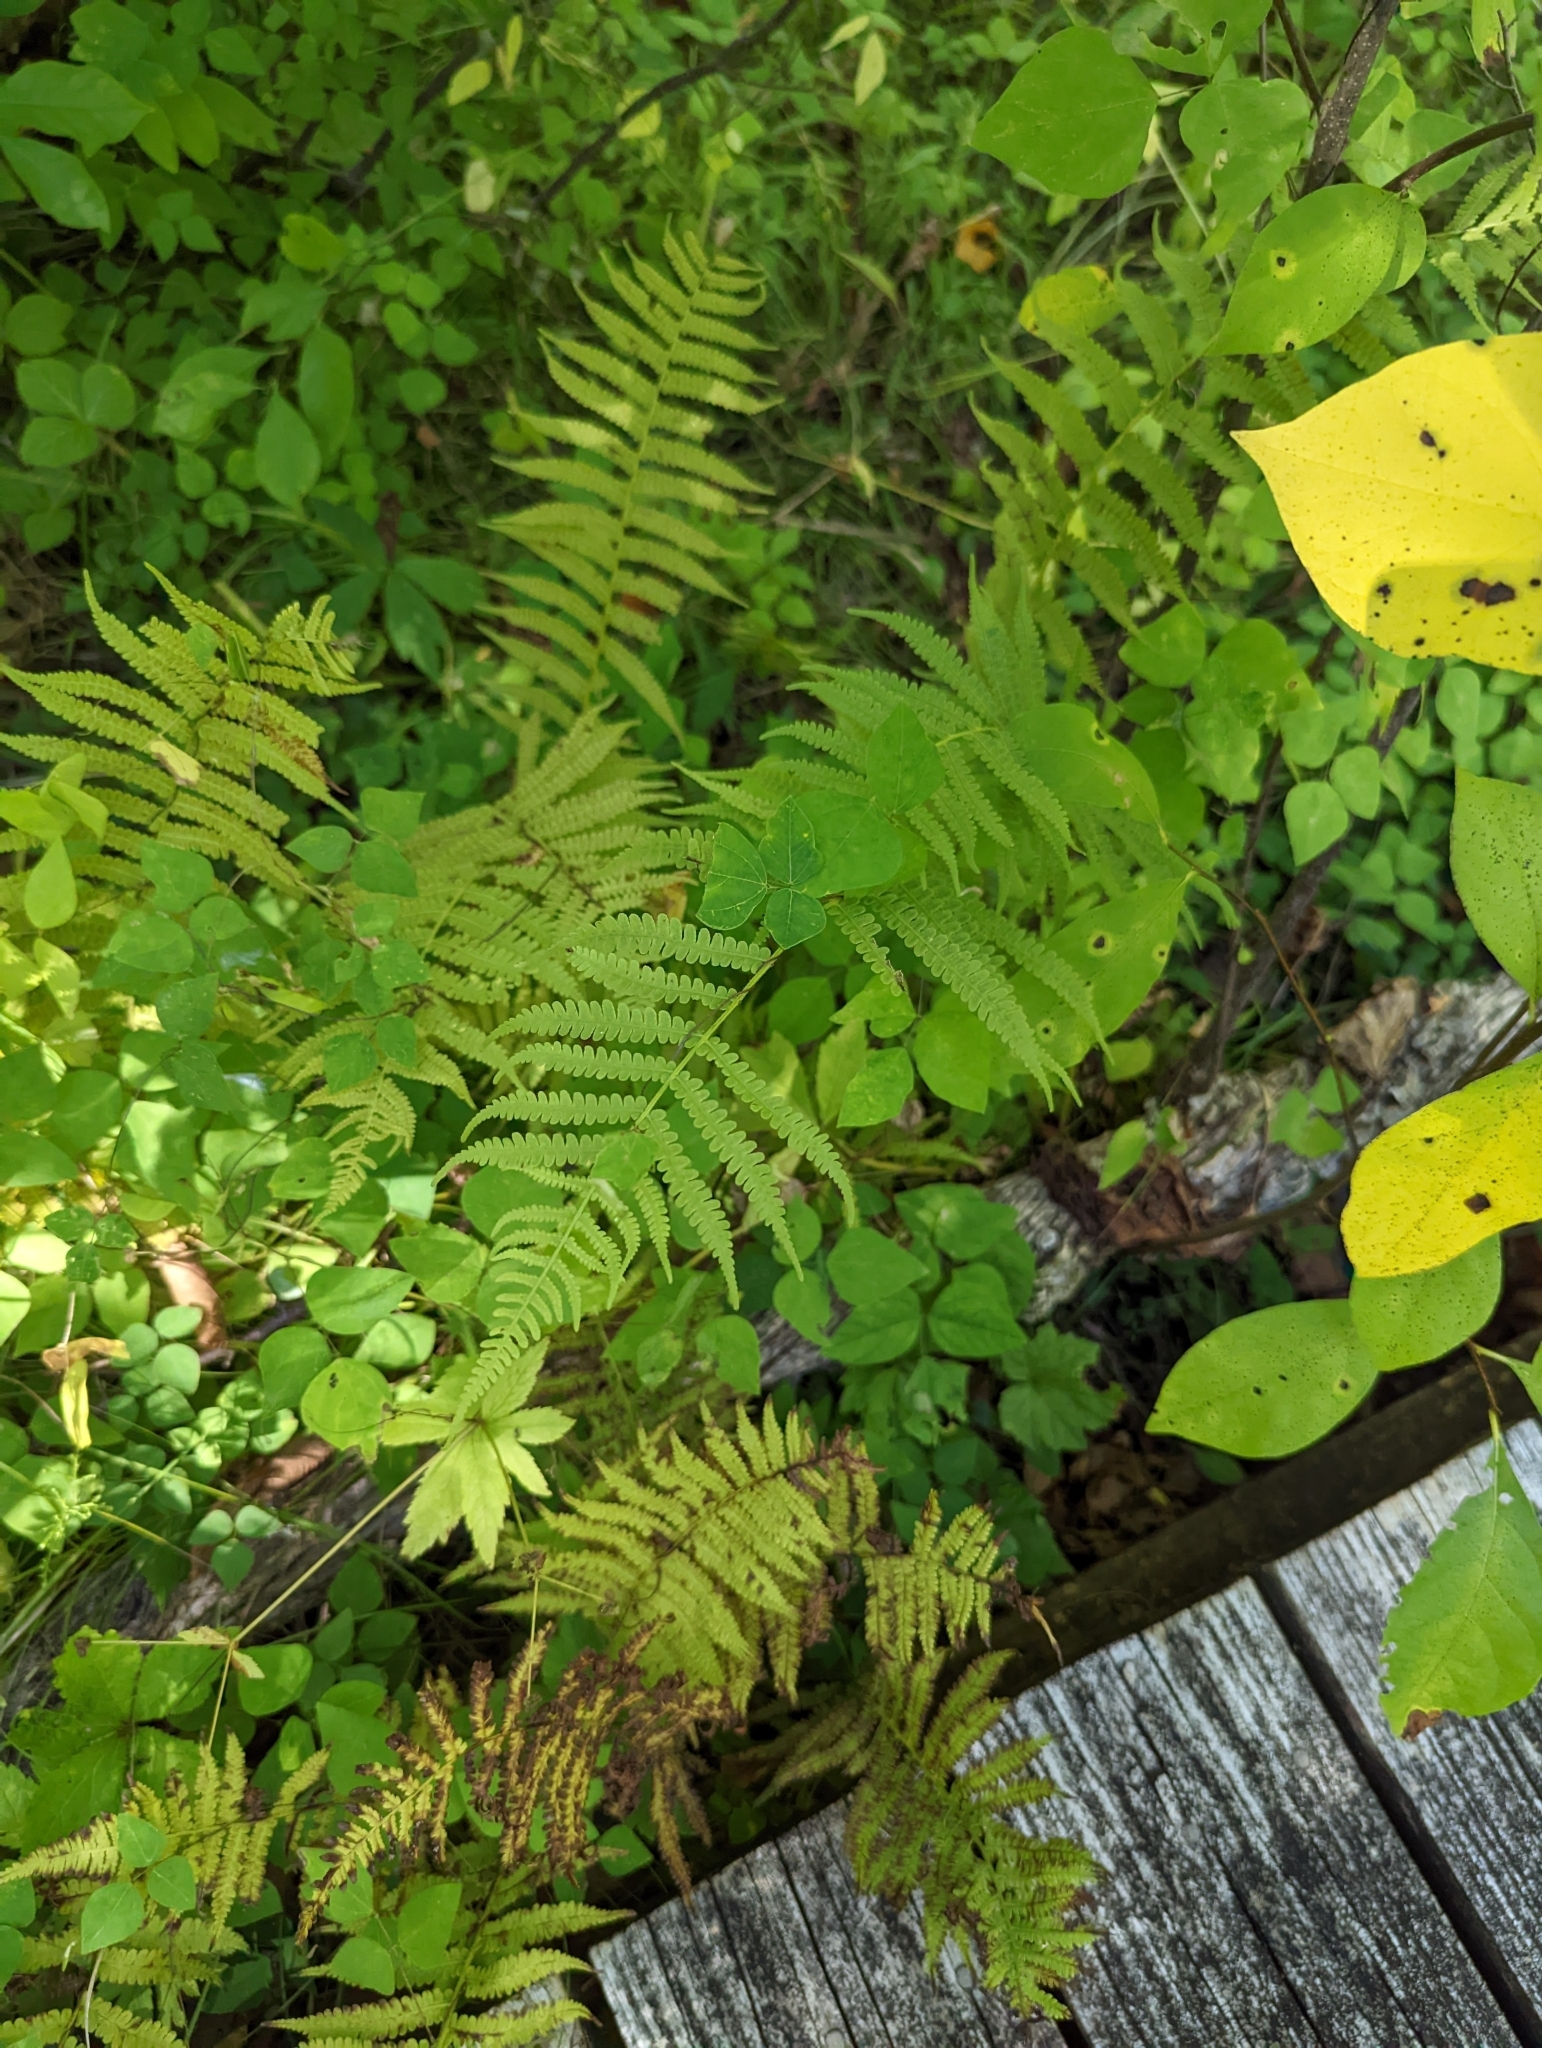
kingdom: Plantae
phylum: Tracheophyta
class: Polypodiopsida
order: Polypodiales
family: Thelypteridaceae
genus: Thelypteris
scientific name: Thelypteris palustris
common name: Marsh fern
